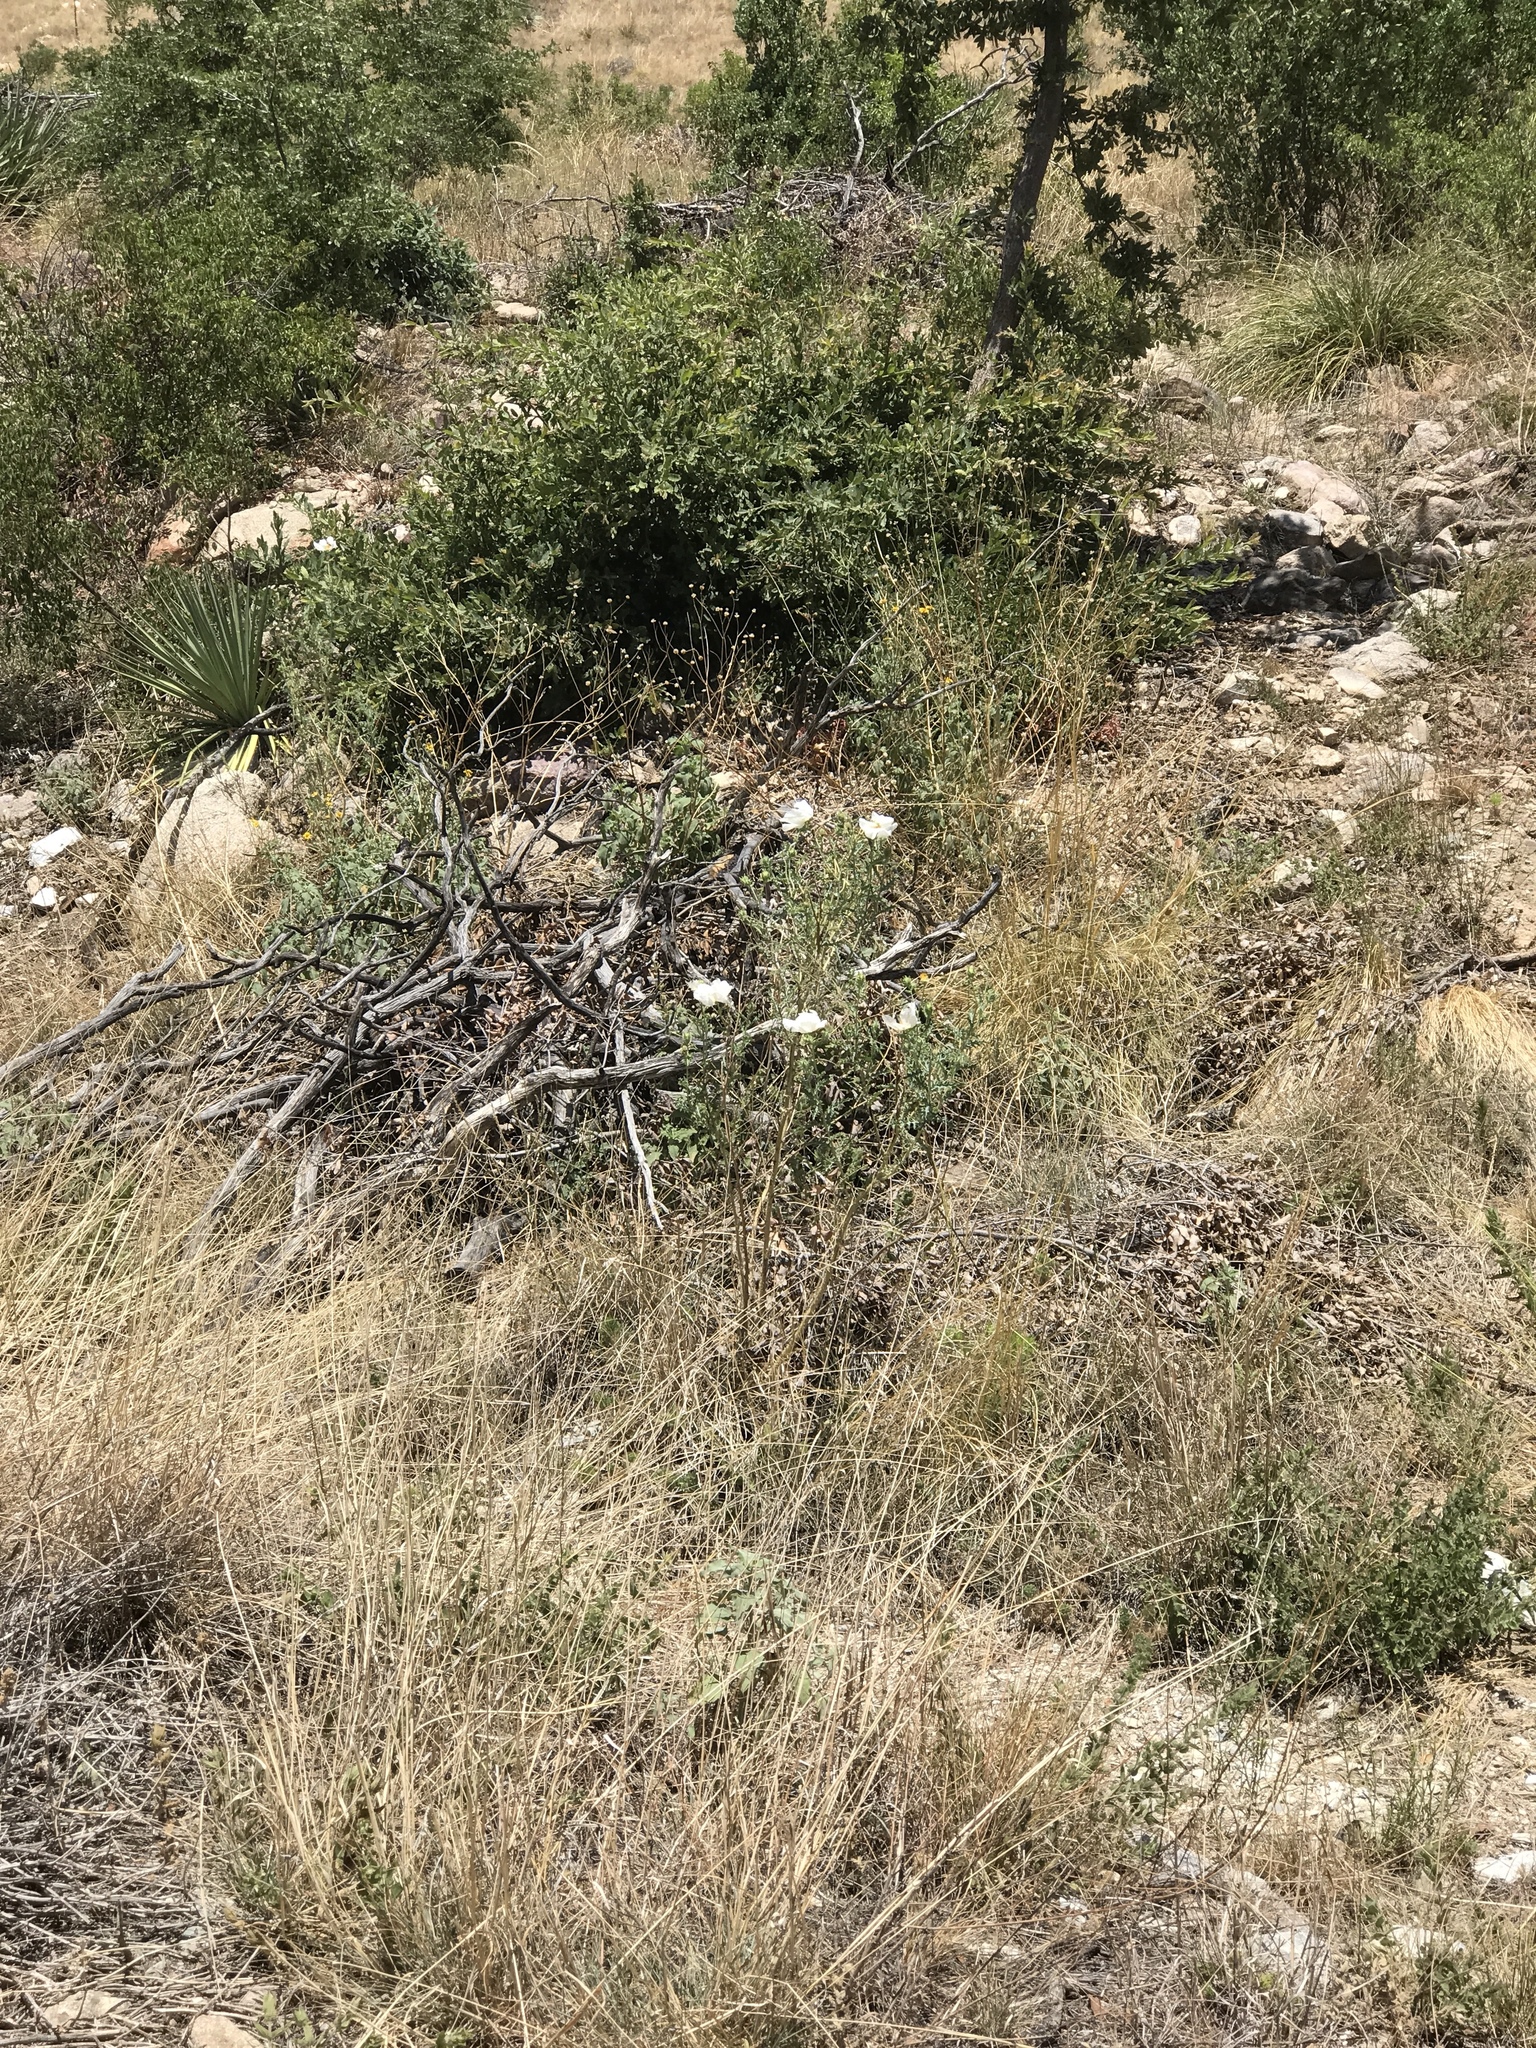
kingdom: Plantae
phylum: Tracheophyta
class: Magnoliopsida
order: Ranunculales
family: Papaveraceae
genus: Argemone
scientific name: Argemone pleiacantha
